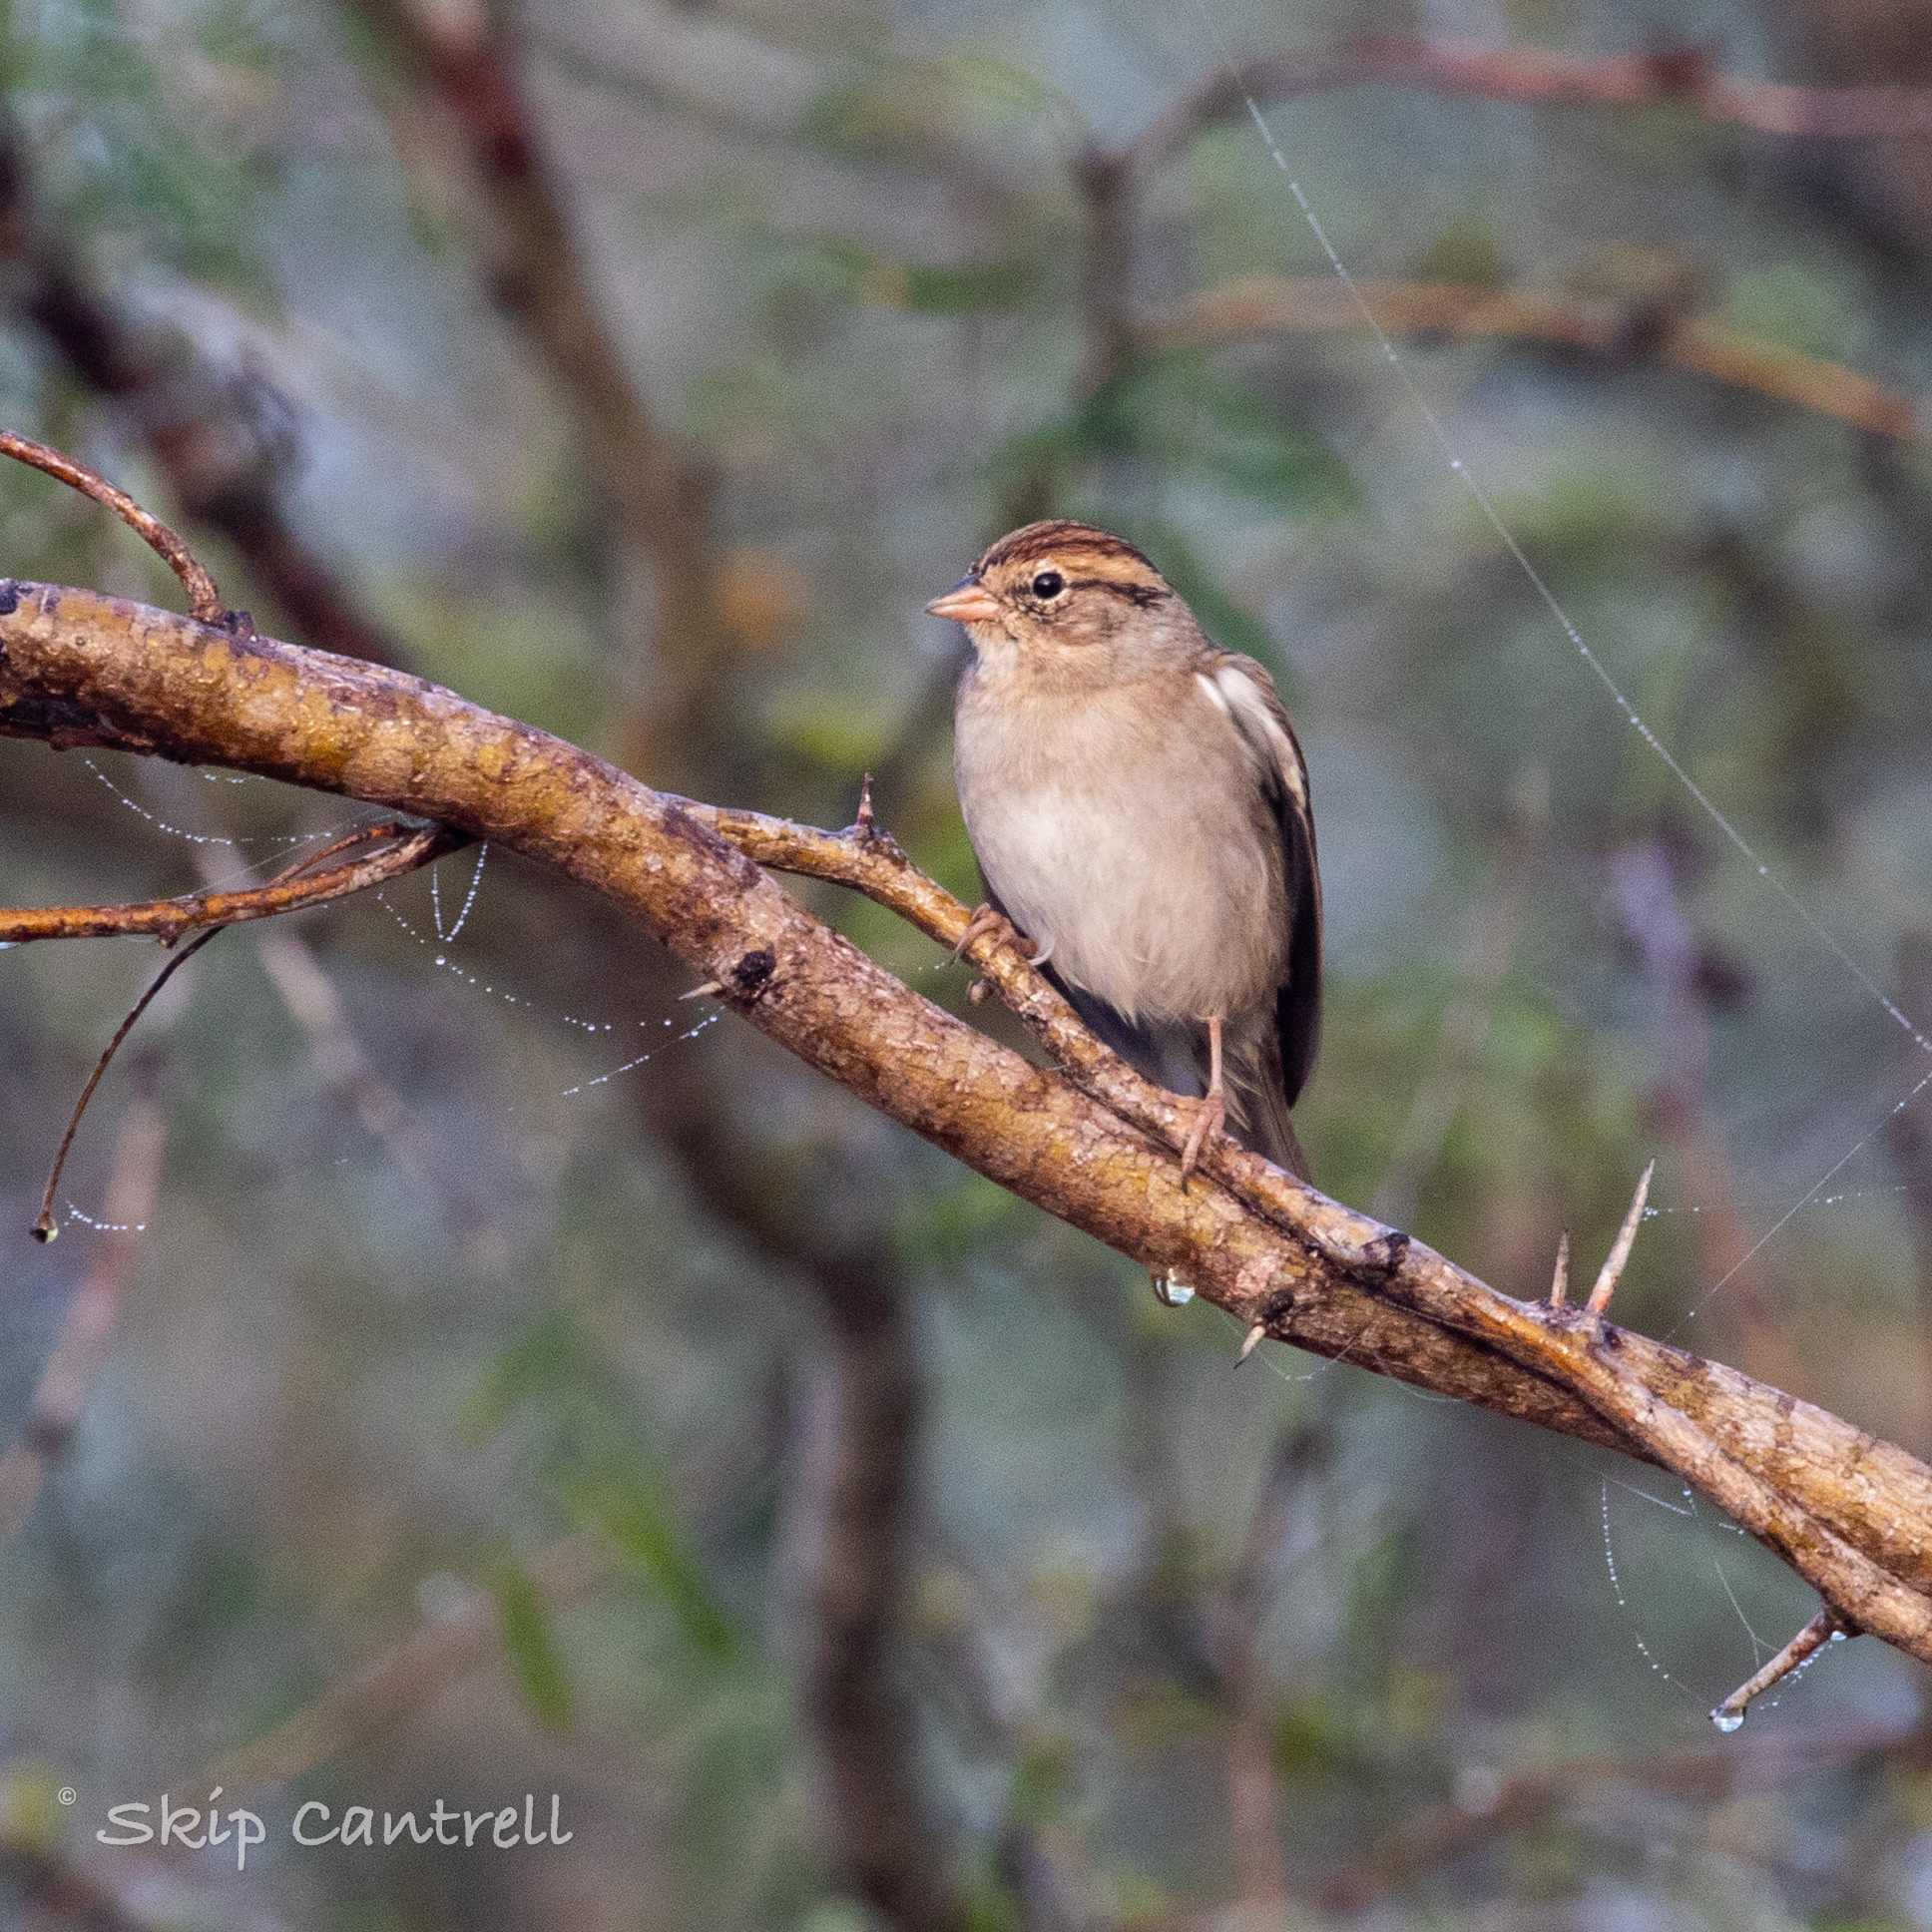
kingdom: Animalia
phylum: Chordata
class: Aves
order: Passeriformes
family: Passerellidae
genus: Spizella
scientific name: Spizella passerina
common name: Chipping sparrow
